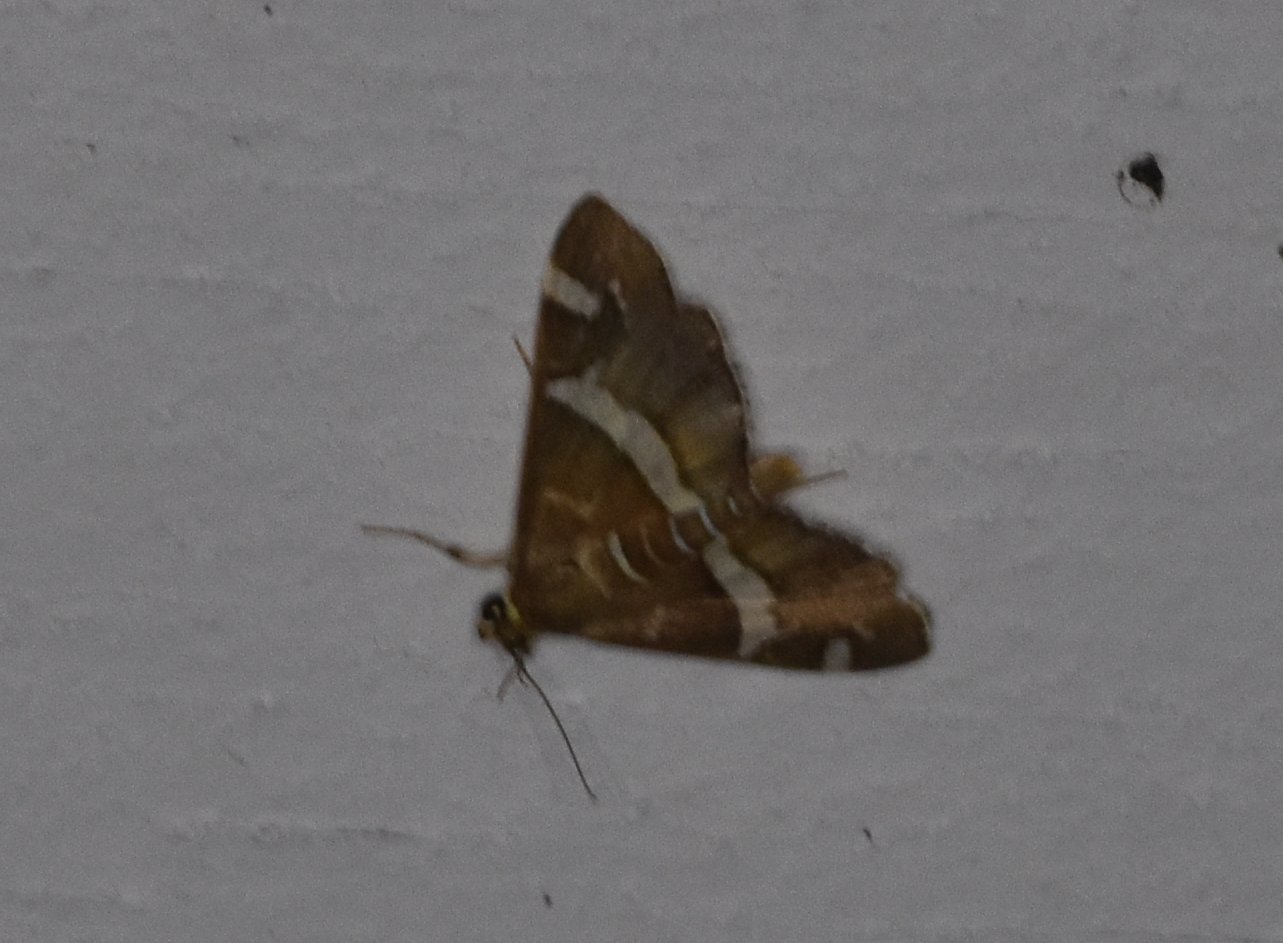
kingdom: Animalia
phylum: Arthropoda
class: Insecta
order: Lepidoptera
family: Crambidae
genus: Spoladea
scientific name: Spoladea recurvalis
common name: Beet webworm moth
